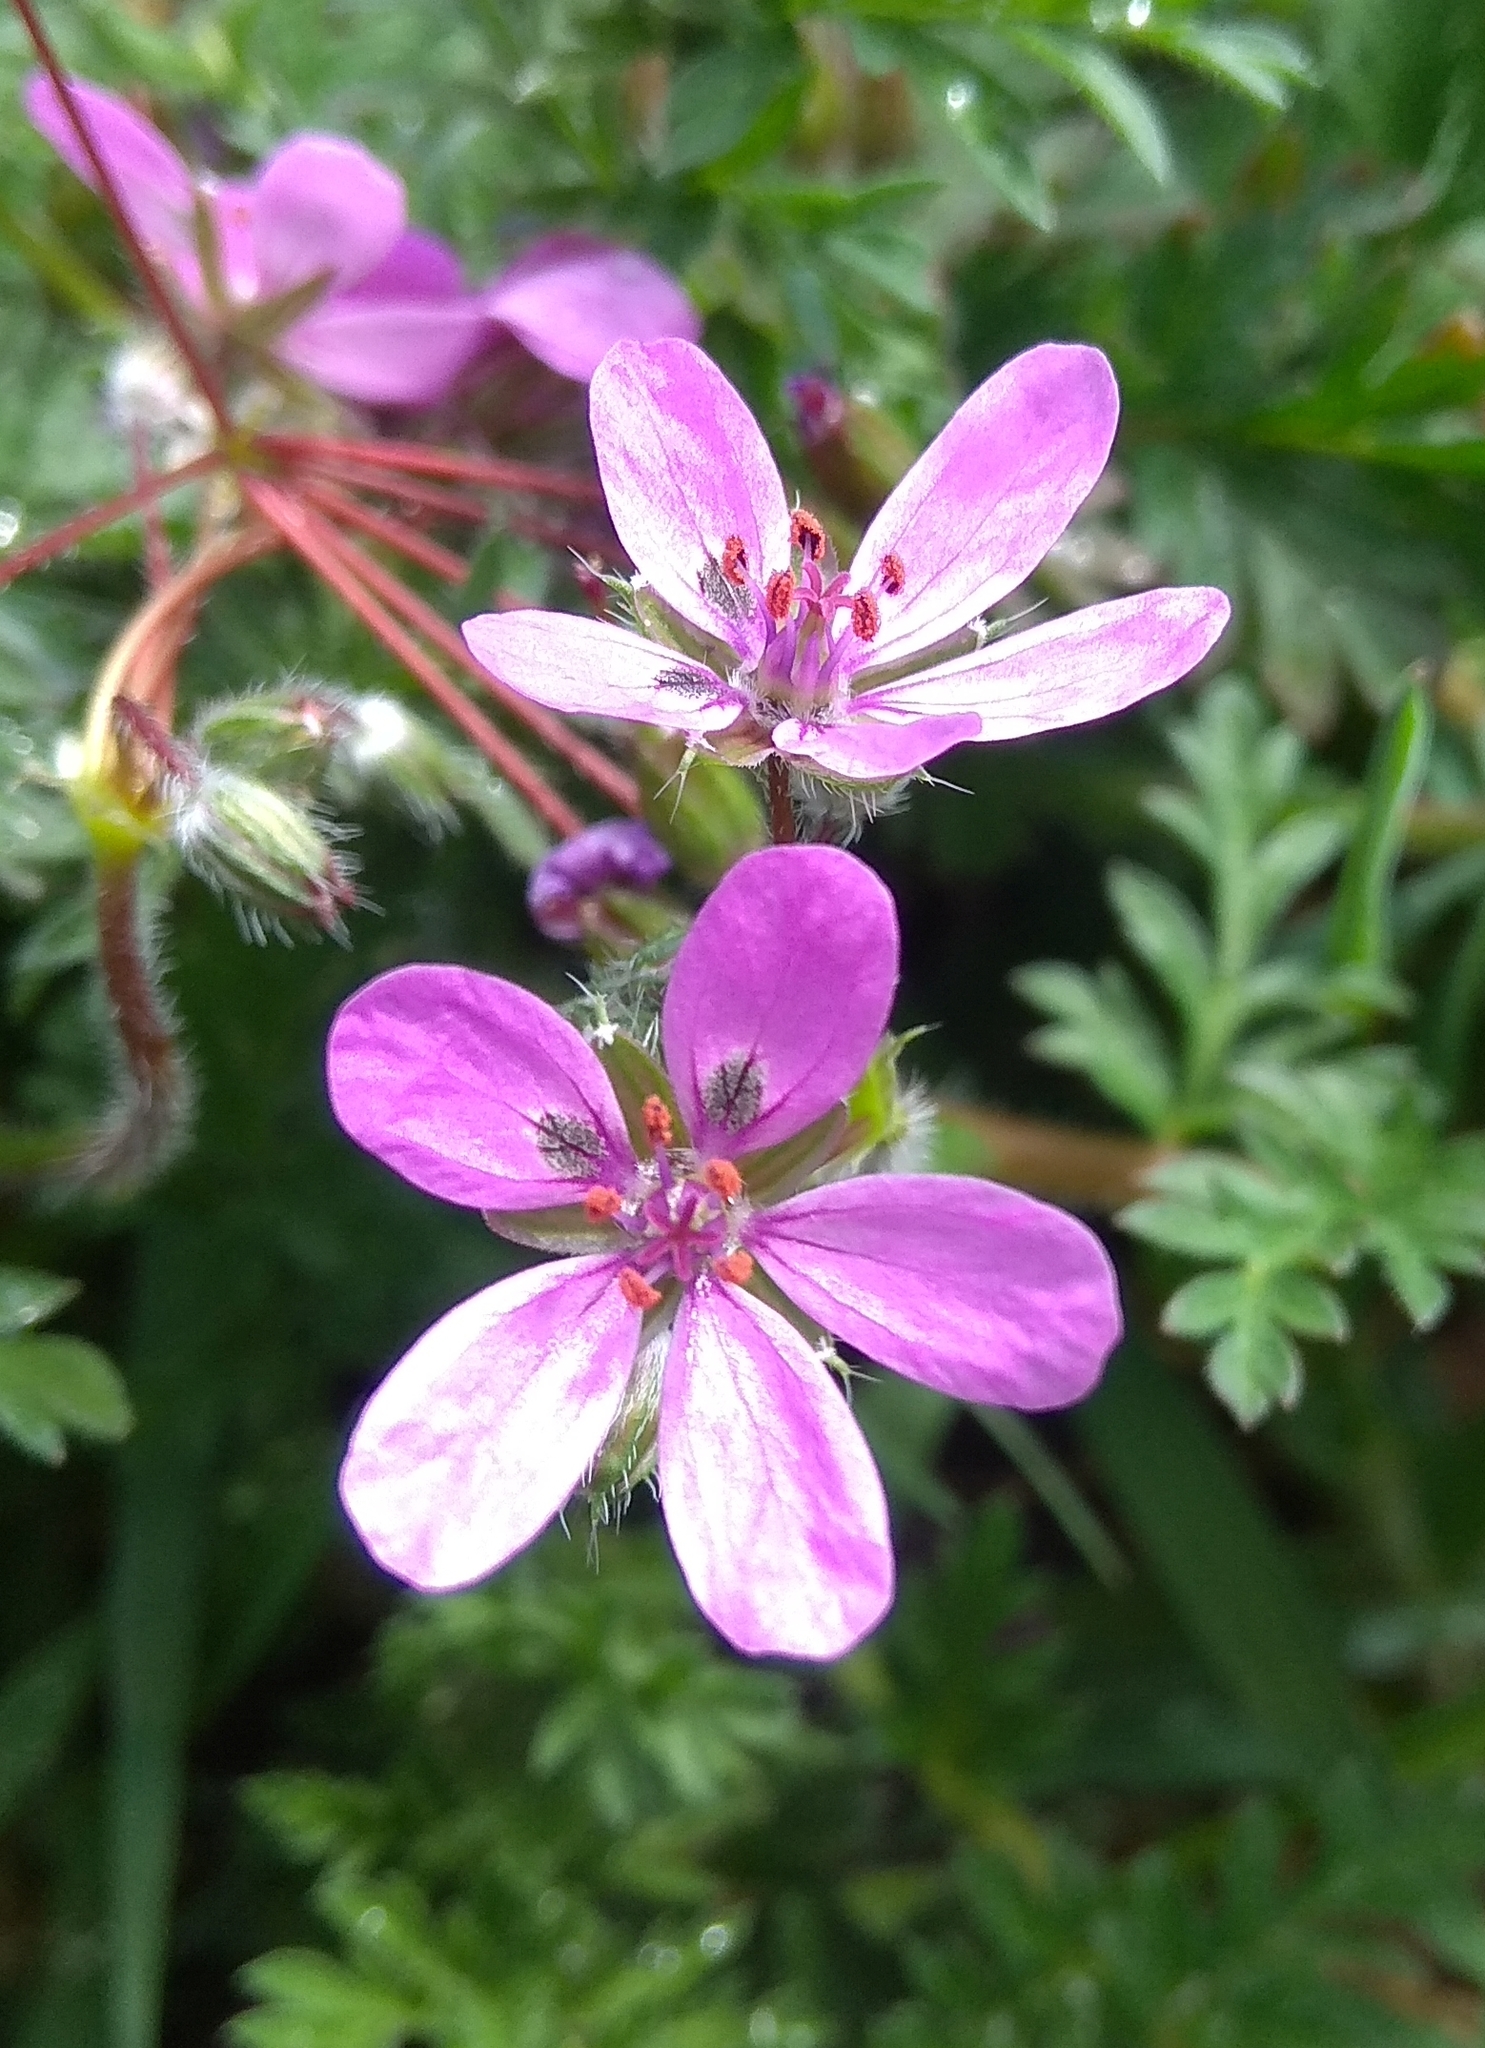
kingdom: Plantae
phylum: Tracheophyta
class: Magnoliopsida
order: Geraniales
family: Geraniaceae
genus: Erodium
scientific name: Erodium cicutarium
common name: Common stork's-bill
